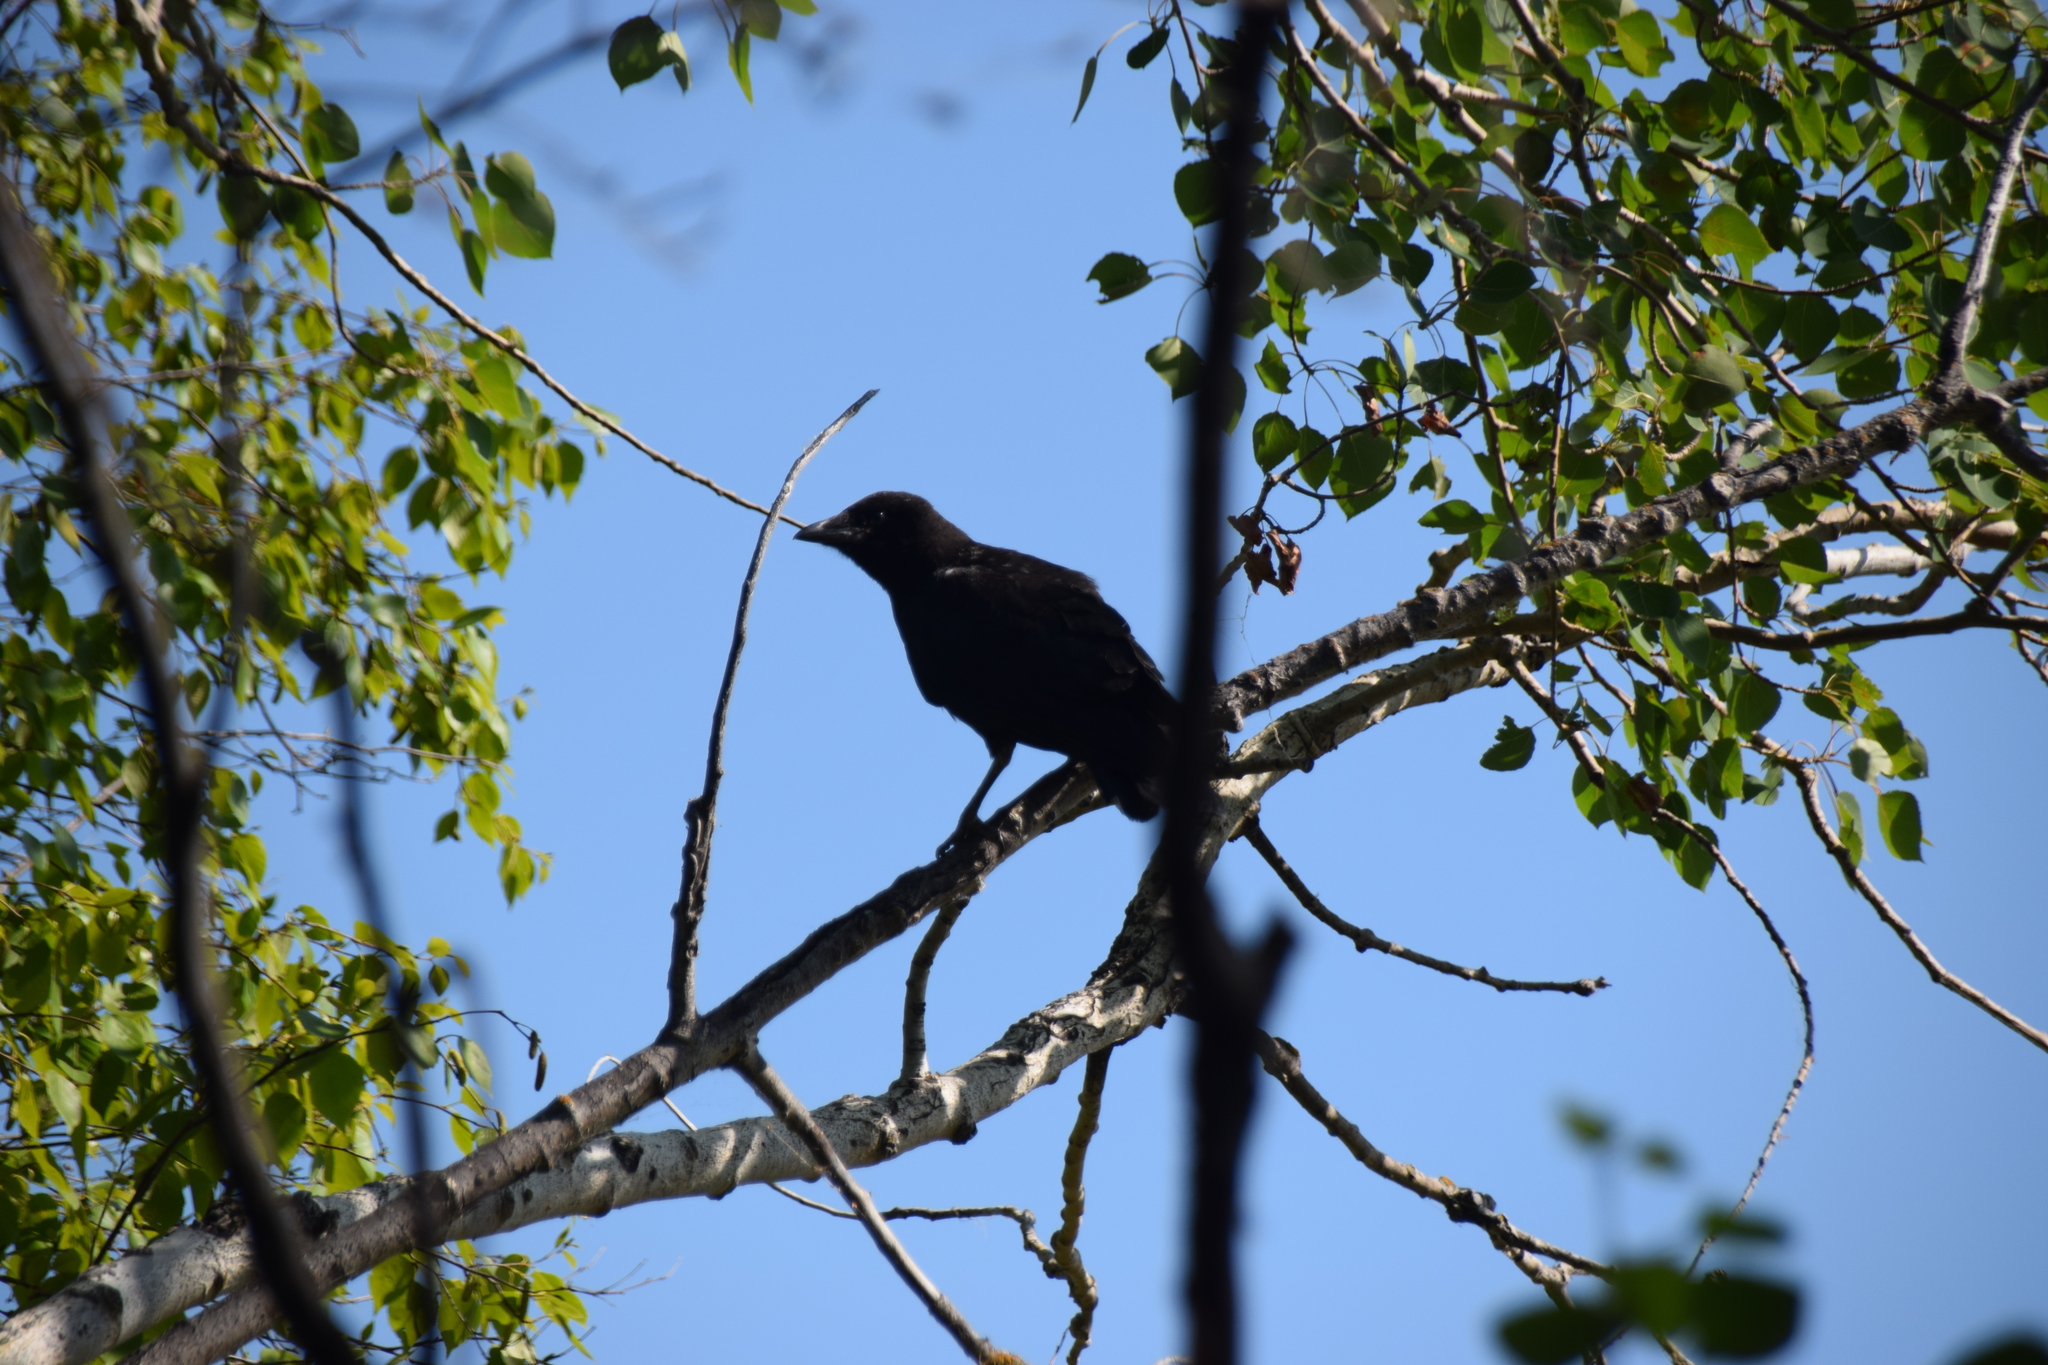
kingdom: Animalia
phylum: Chordata
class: Aves
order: Passeriformes
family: Corvidae
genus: Corvus
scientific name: Corvus brachyrhynchos
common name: American crow
